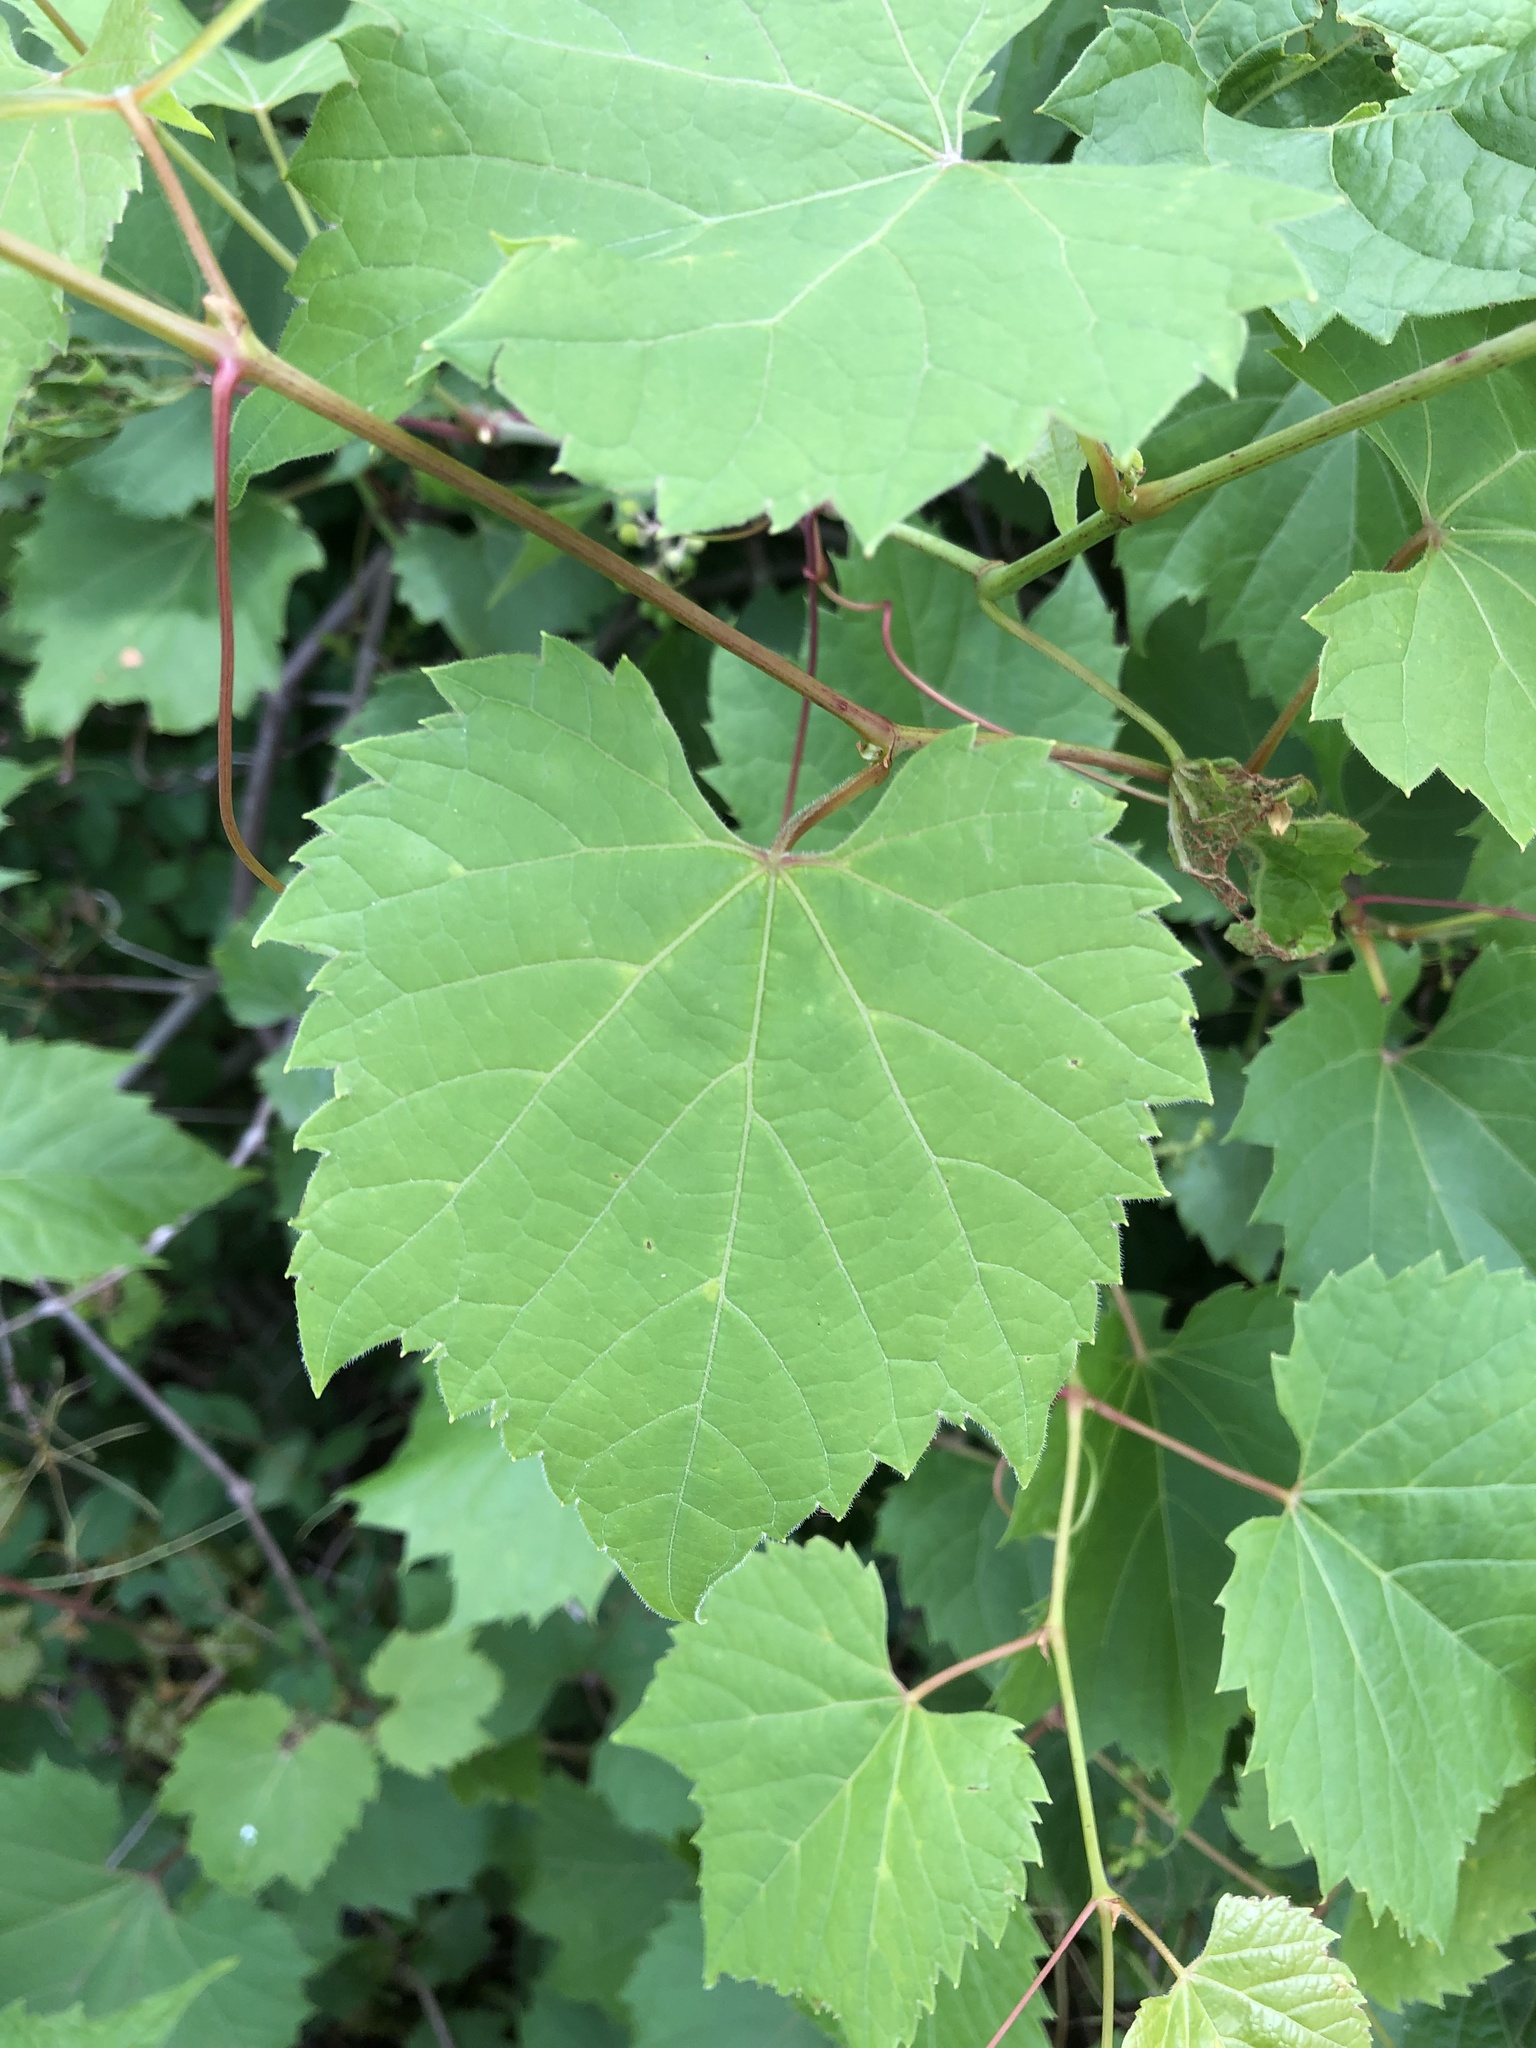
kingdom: Plantae
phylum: Tracheophyta
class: Magnoliopsida
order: Vitales
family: Vitaceae
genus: Vitis
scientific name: Vitis riparia
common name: Frost grape
